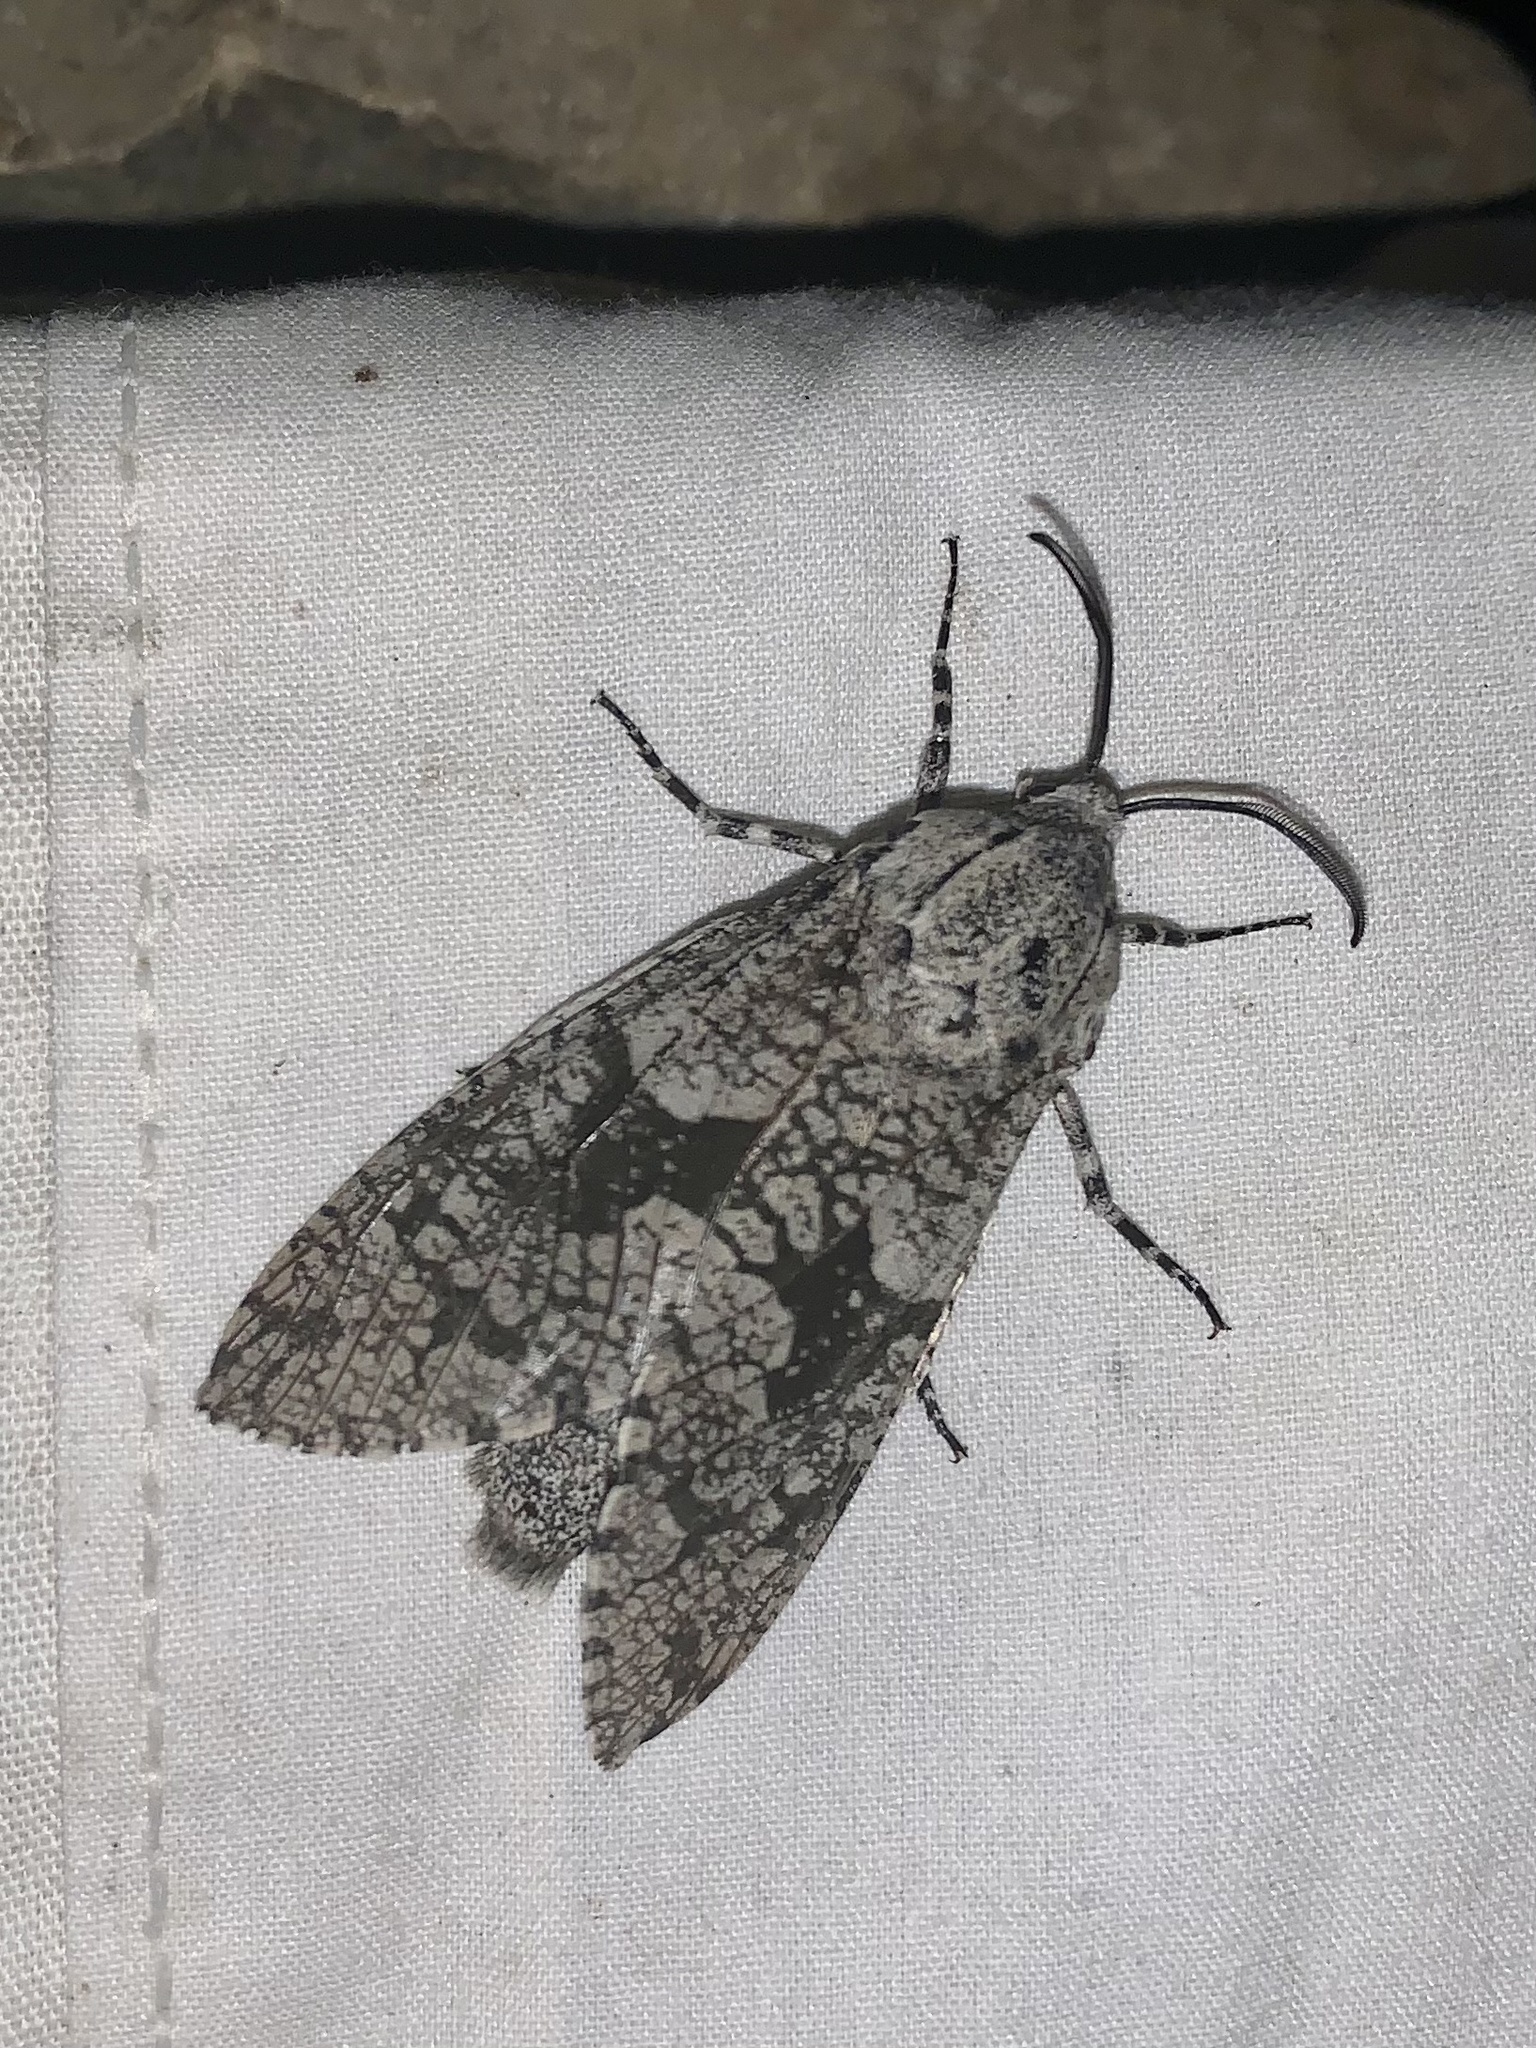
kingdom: Animalia
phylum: Arthropoda
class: Insecta
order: Lepidoptera
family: Cossidae
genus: Prionoxystus
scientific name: Prionoxystus robiniae
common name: Carpenterworm
